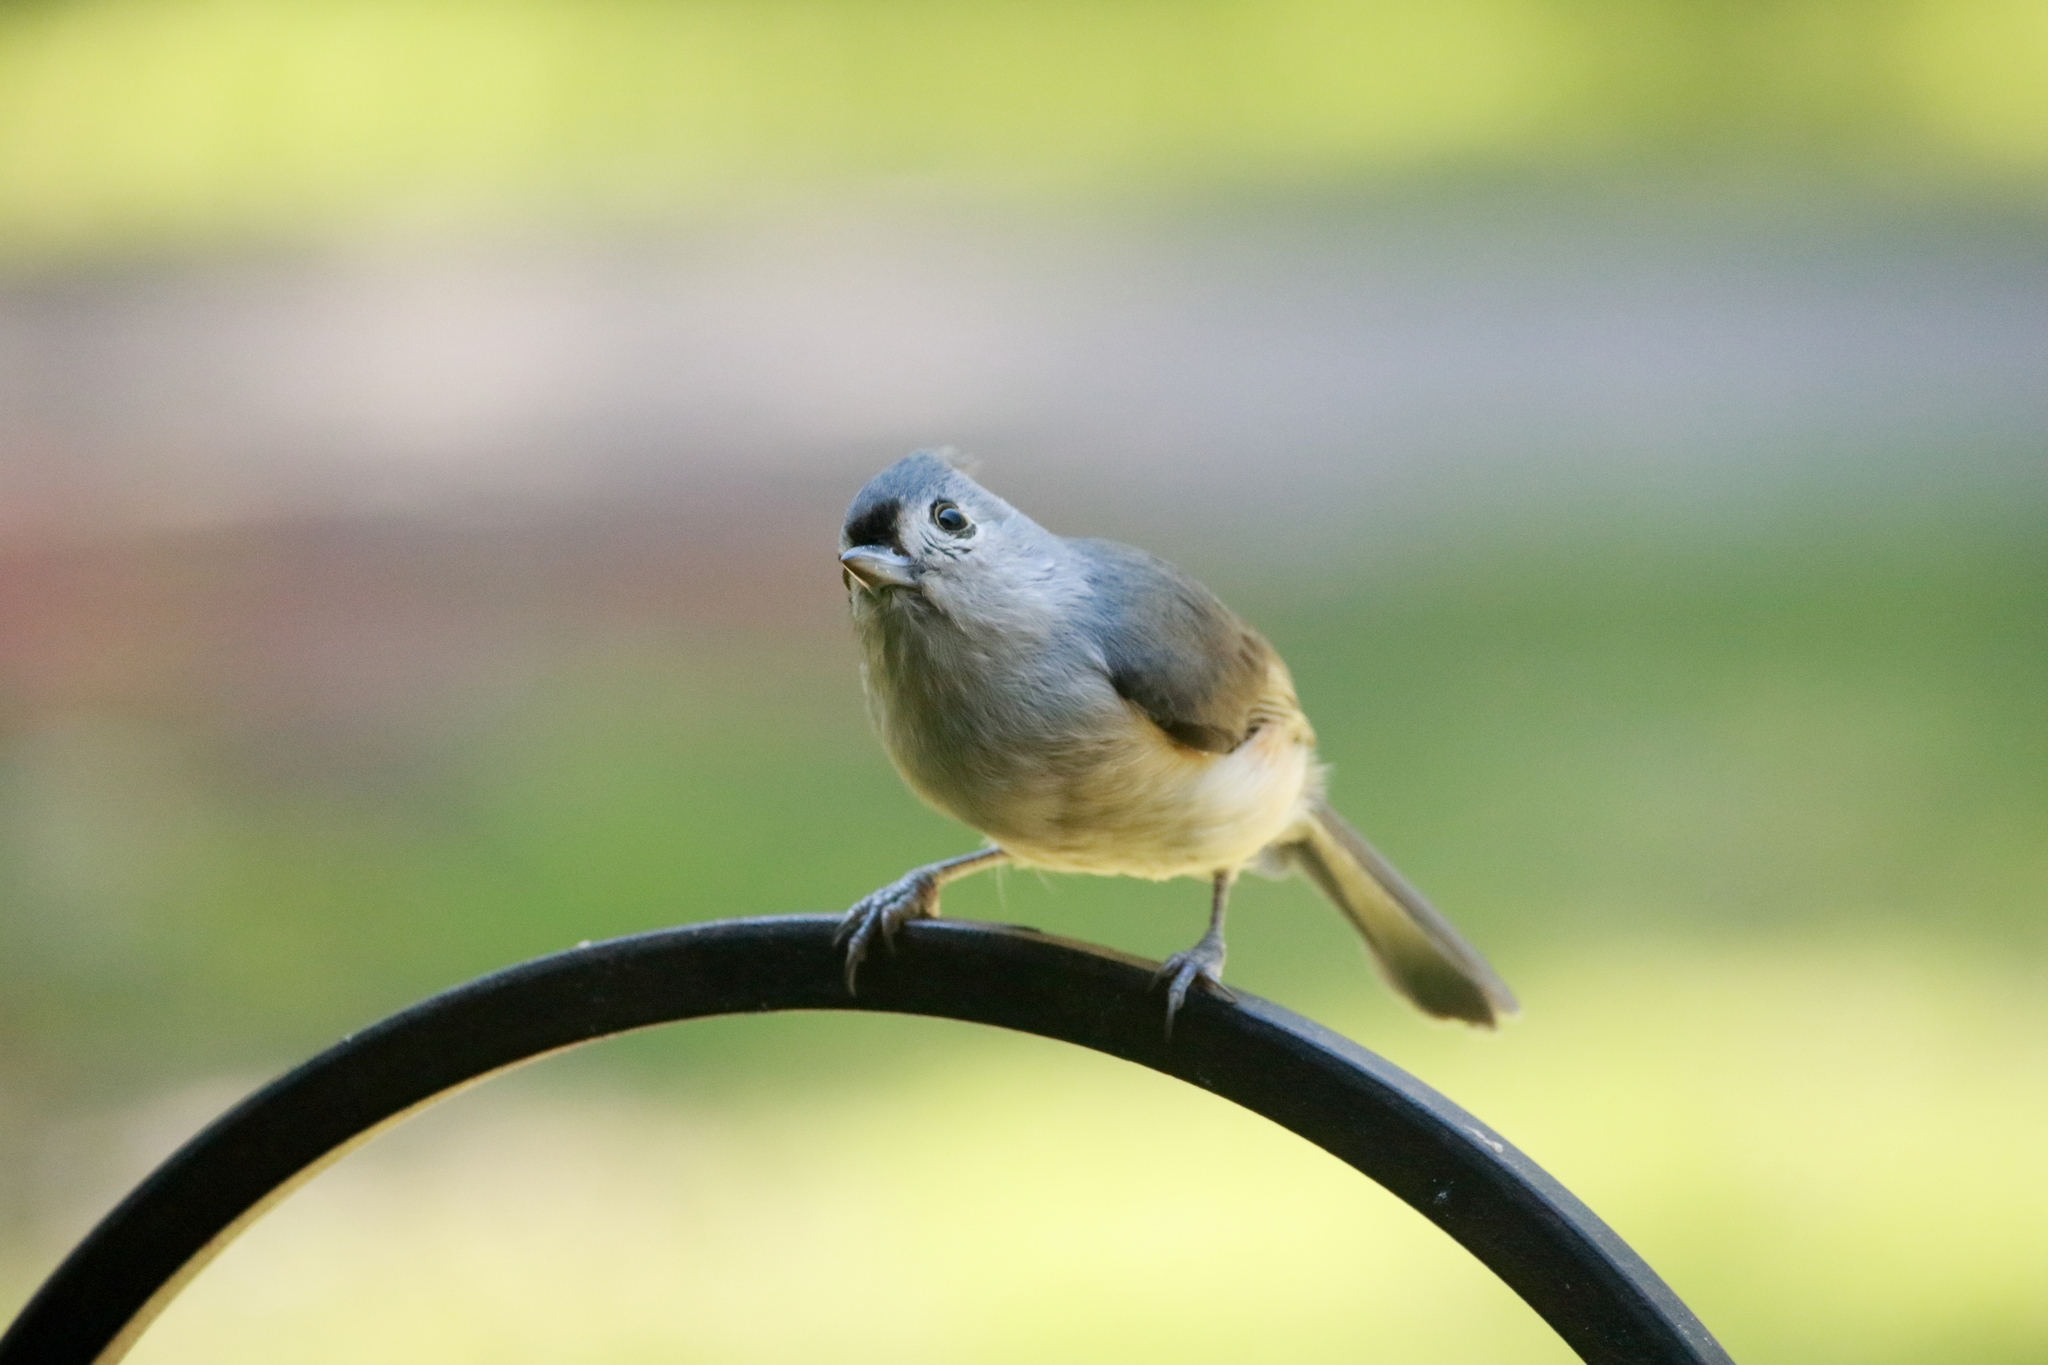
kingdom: Animalia
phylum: Chordata
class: Aves
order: Passeriformes
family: Paridae
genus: Baeolophus
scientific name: Baeolophus bicolor
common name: Tufted titmouse
